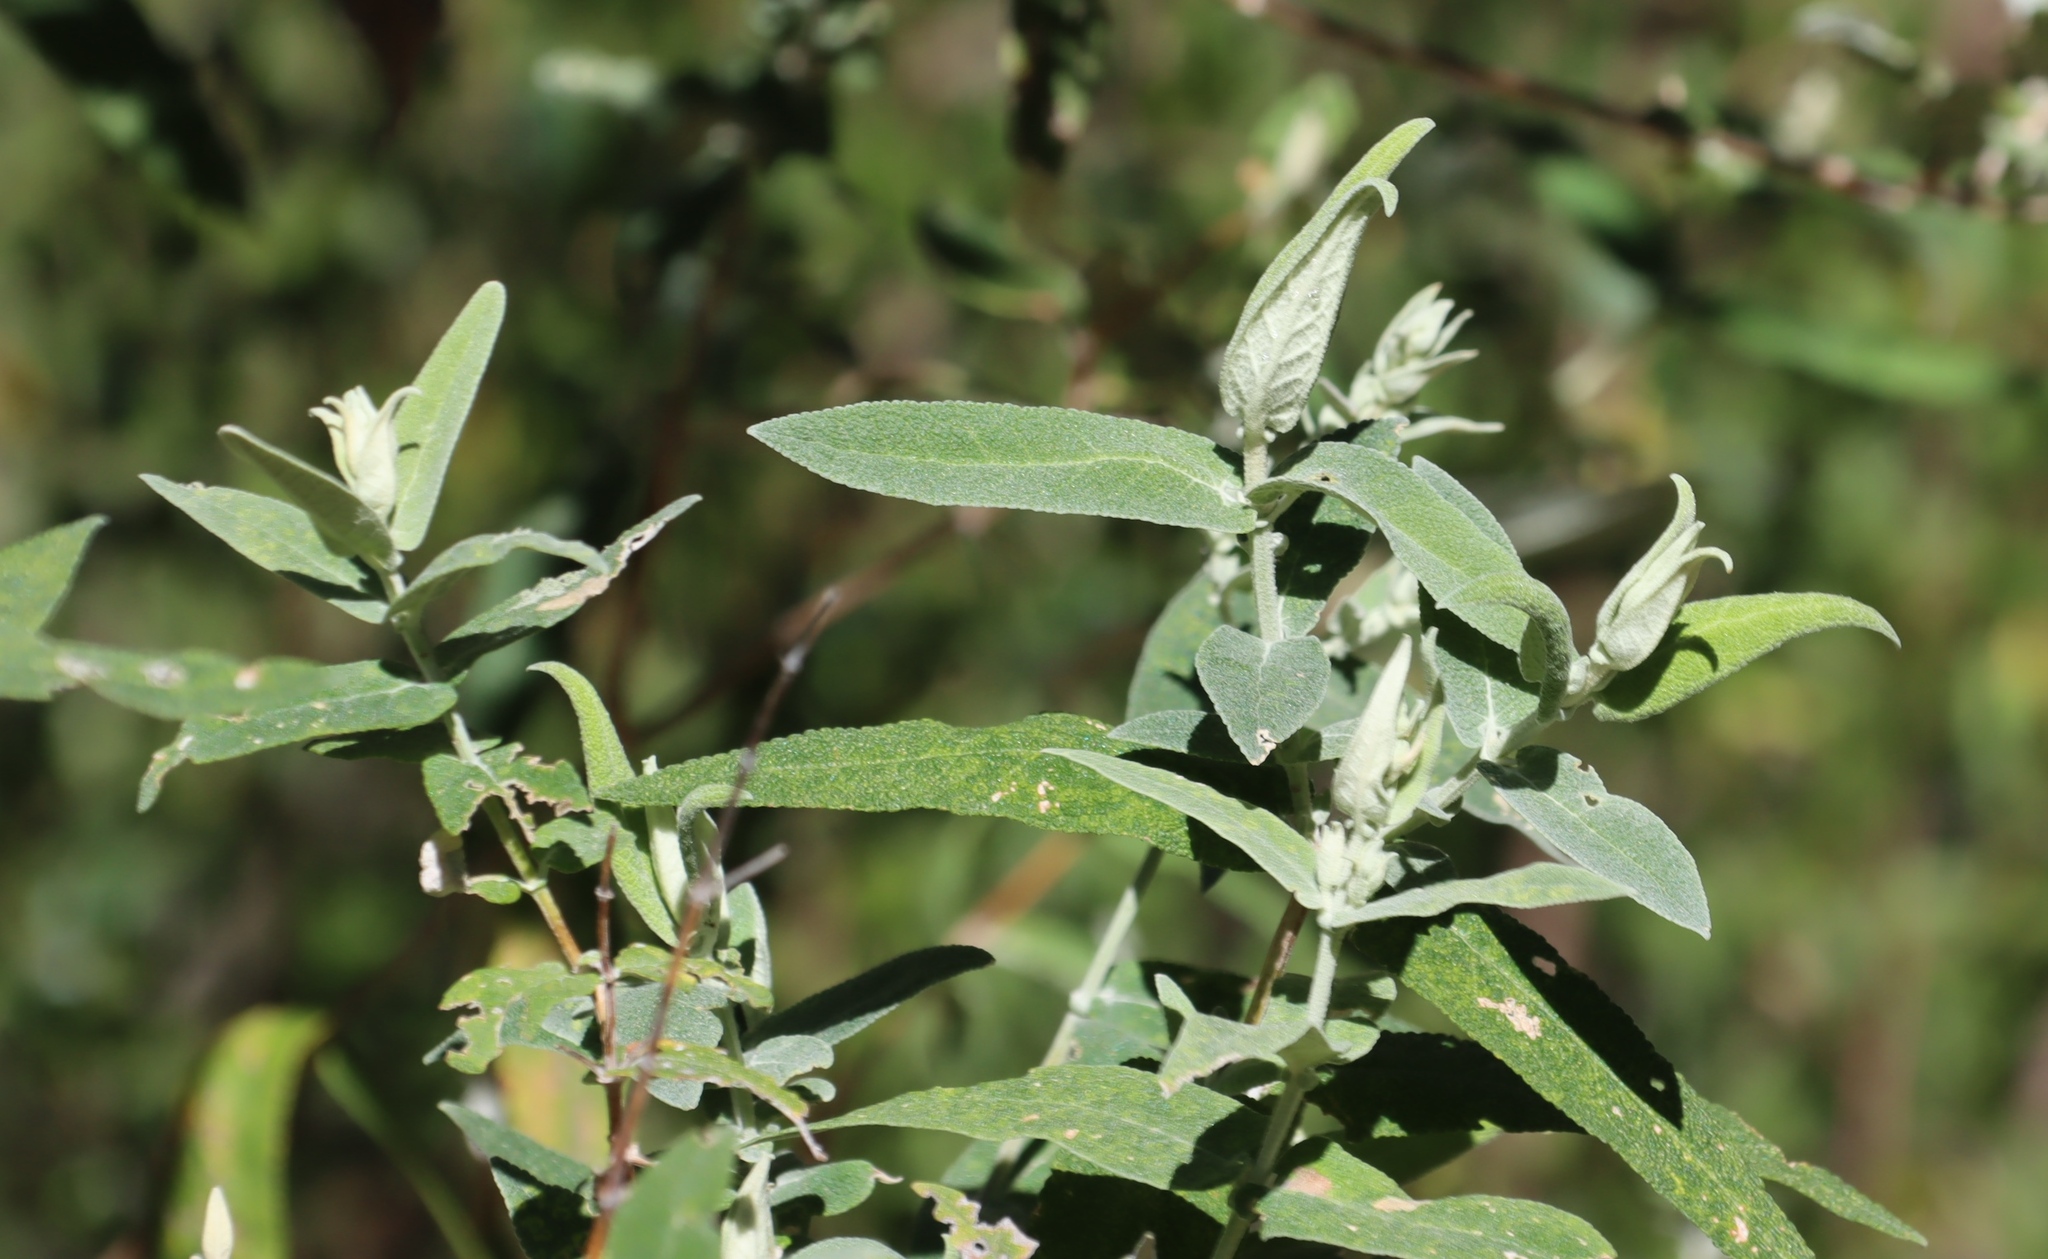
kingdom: Plantae
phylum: Tracheophyta
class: Magnoliopsida
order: Lamiales
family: Scrophulariaceae
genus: Buddleja
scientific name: Buddleja salviifolia
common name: Sagewood
